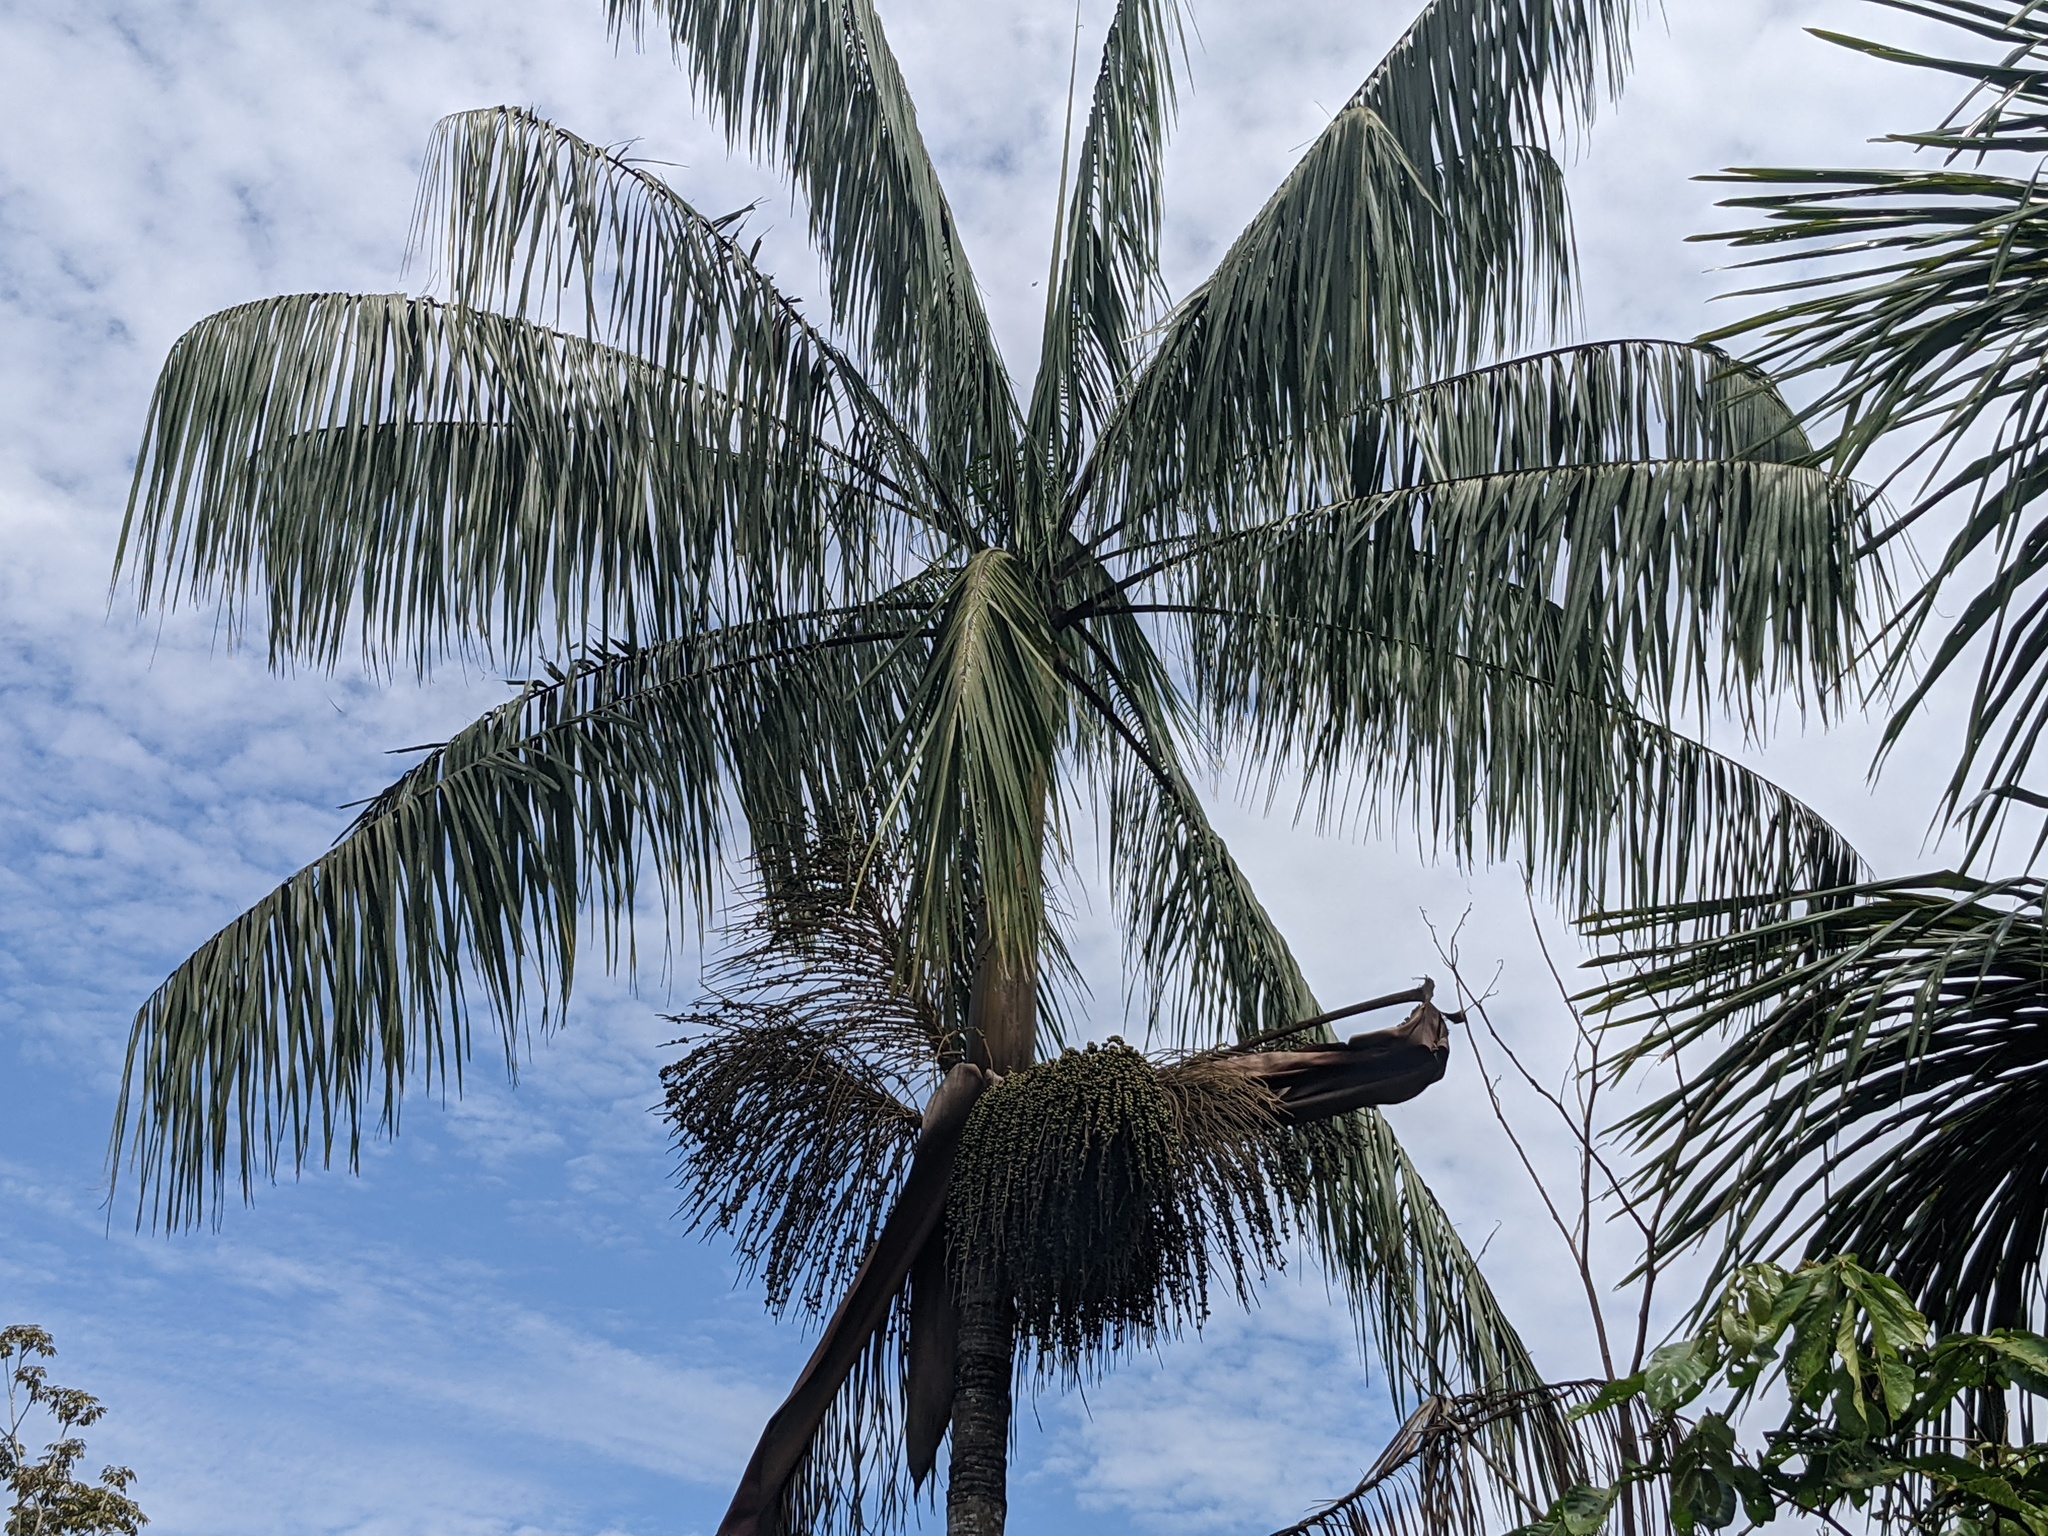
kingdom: Plantae
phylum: Tracheophyta
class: Liliopsida
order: Arecales
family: Arecaceae
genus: Euterpe
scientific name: Euterpe precatoria
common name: Mountain-cabbage
